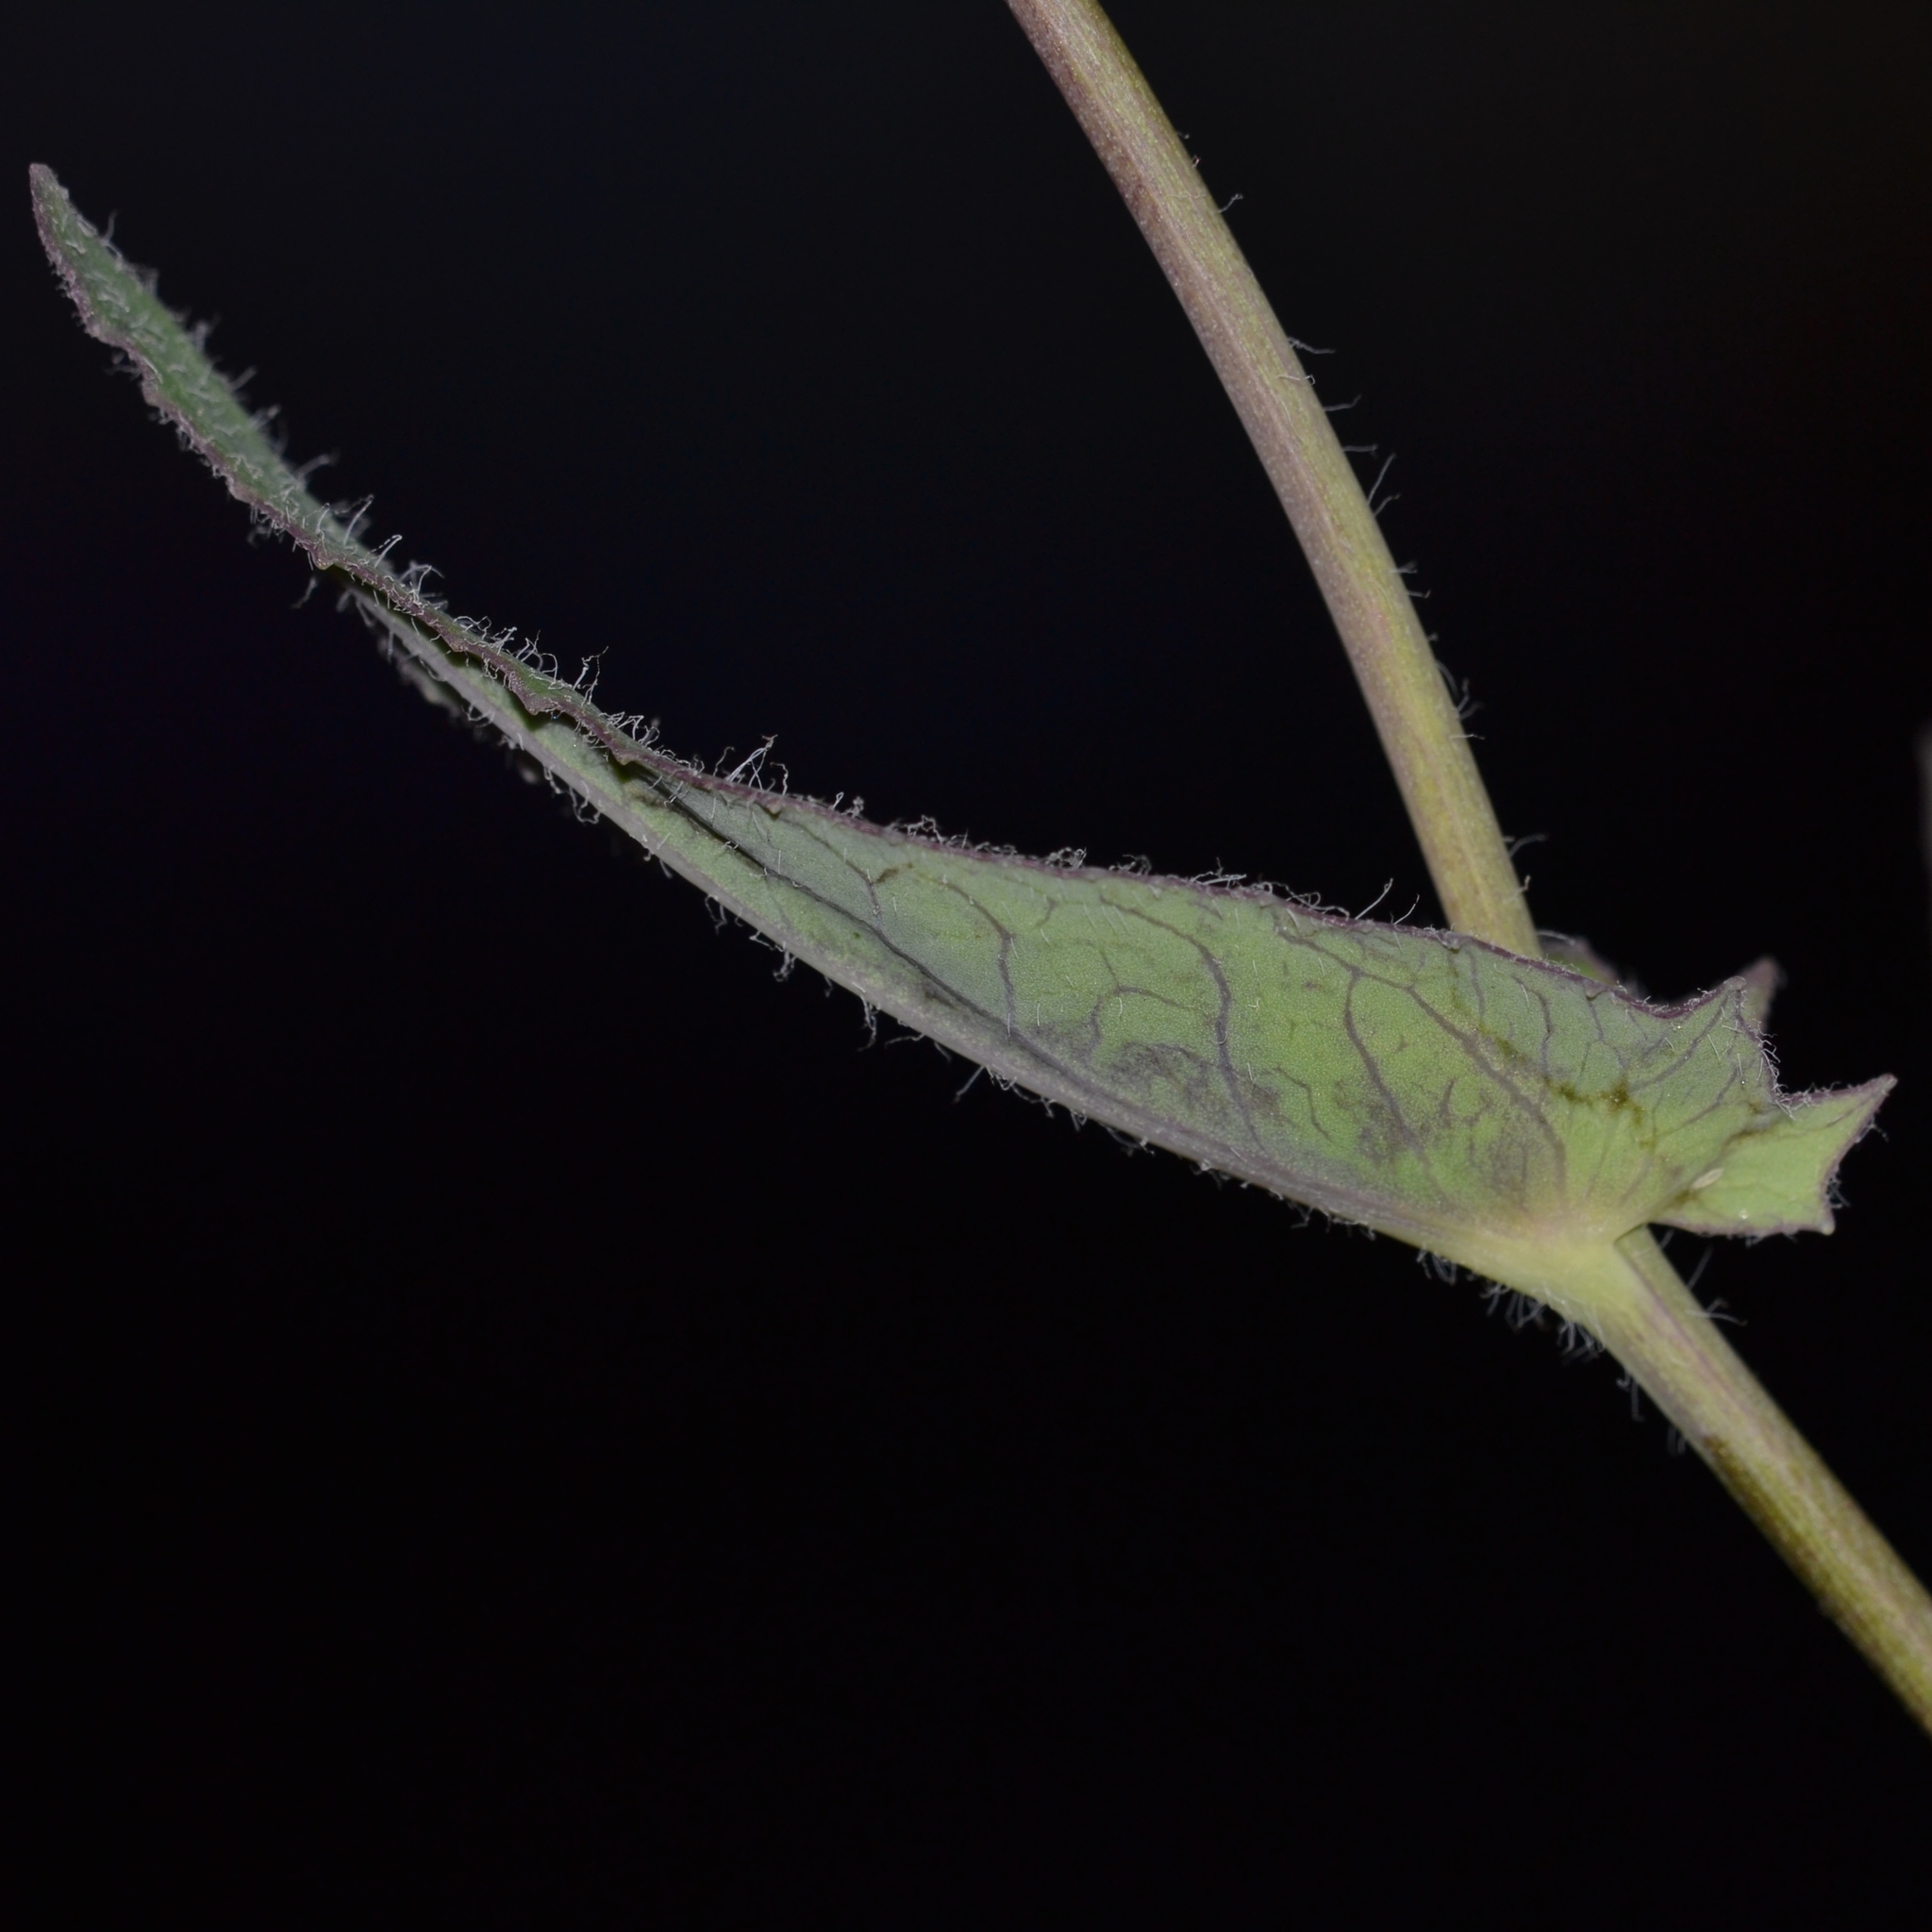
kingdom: Plantae
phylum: Tracheophyta
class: Magnoliopsida
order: Asterales
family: Asteraceae
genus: Emilia
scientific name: Emilia sonchifolia
